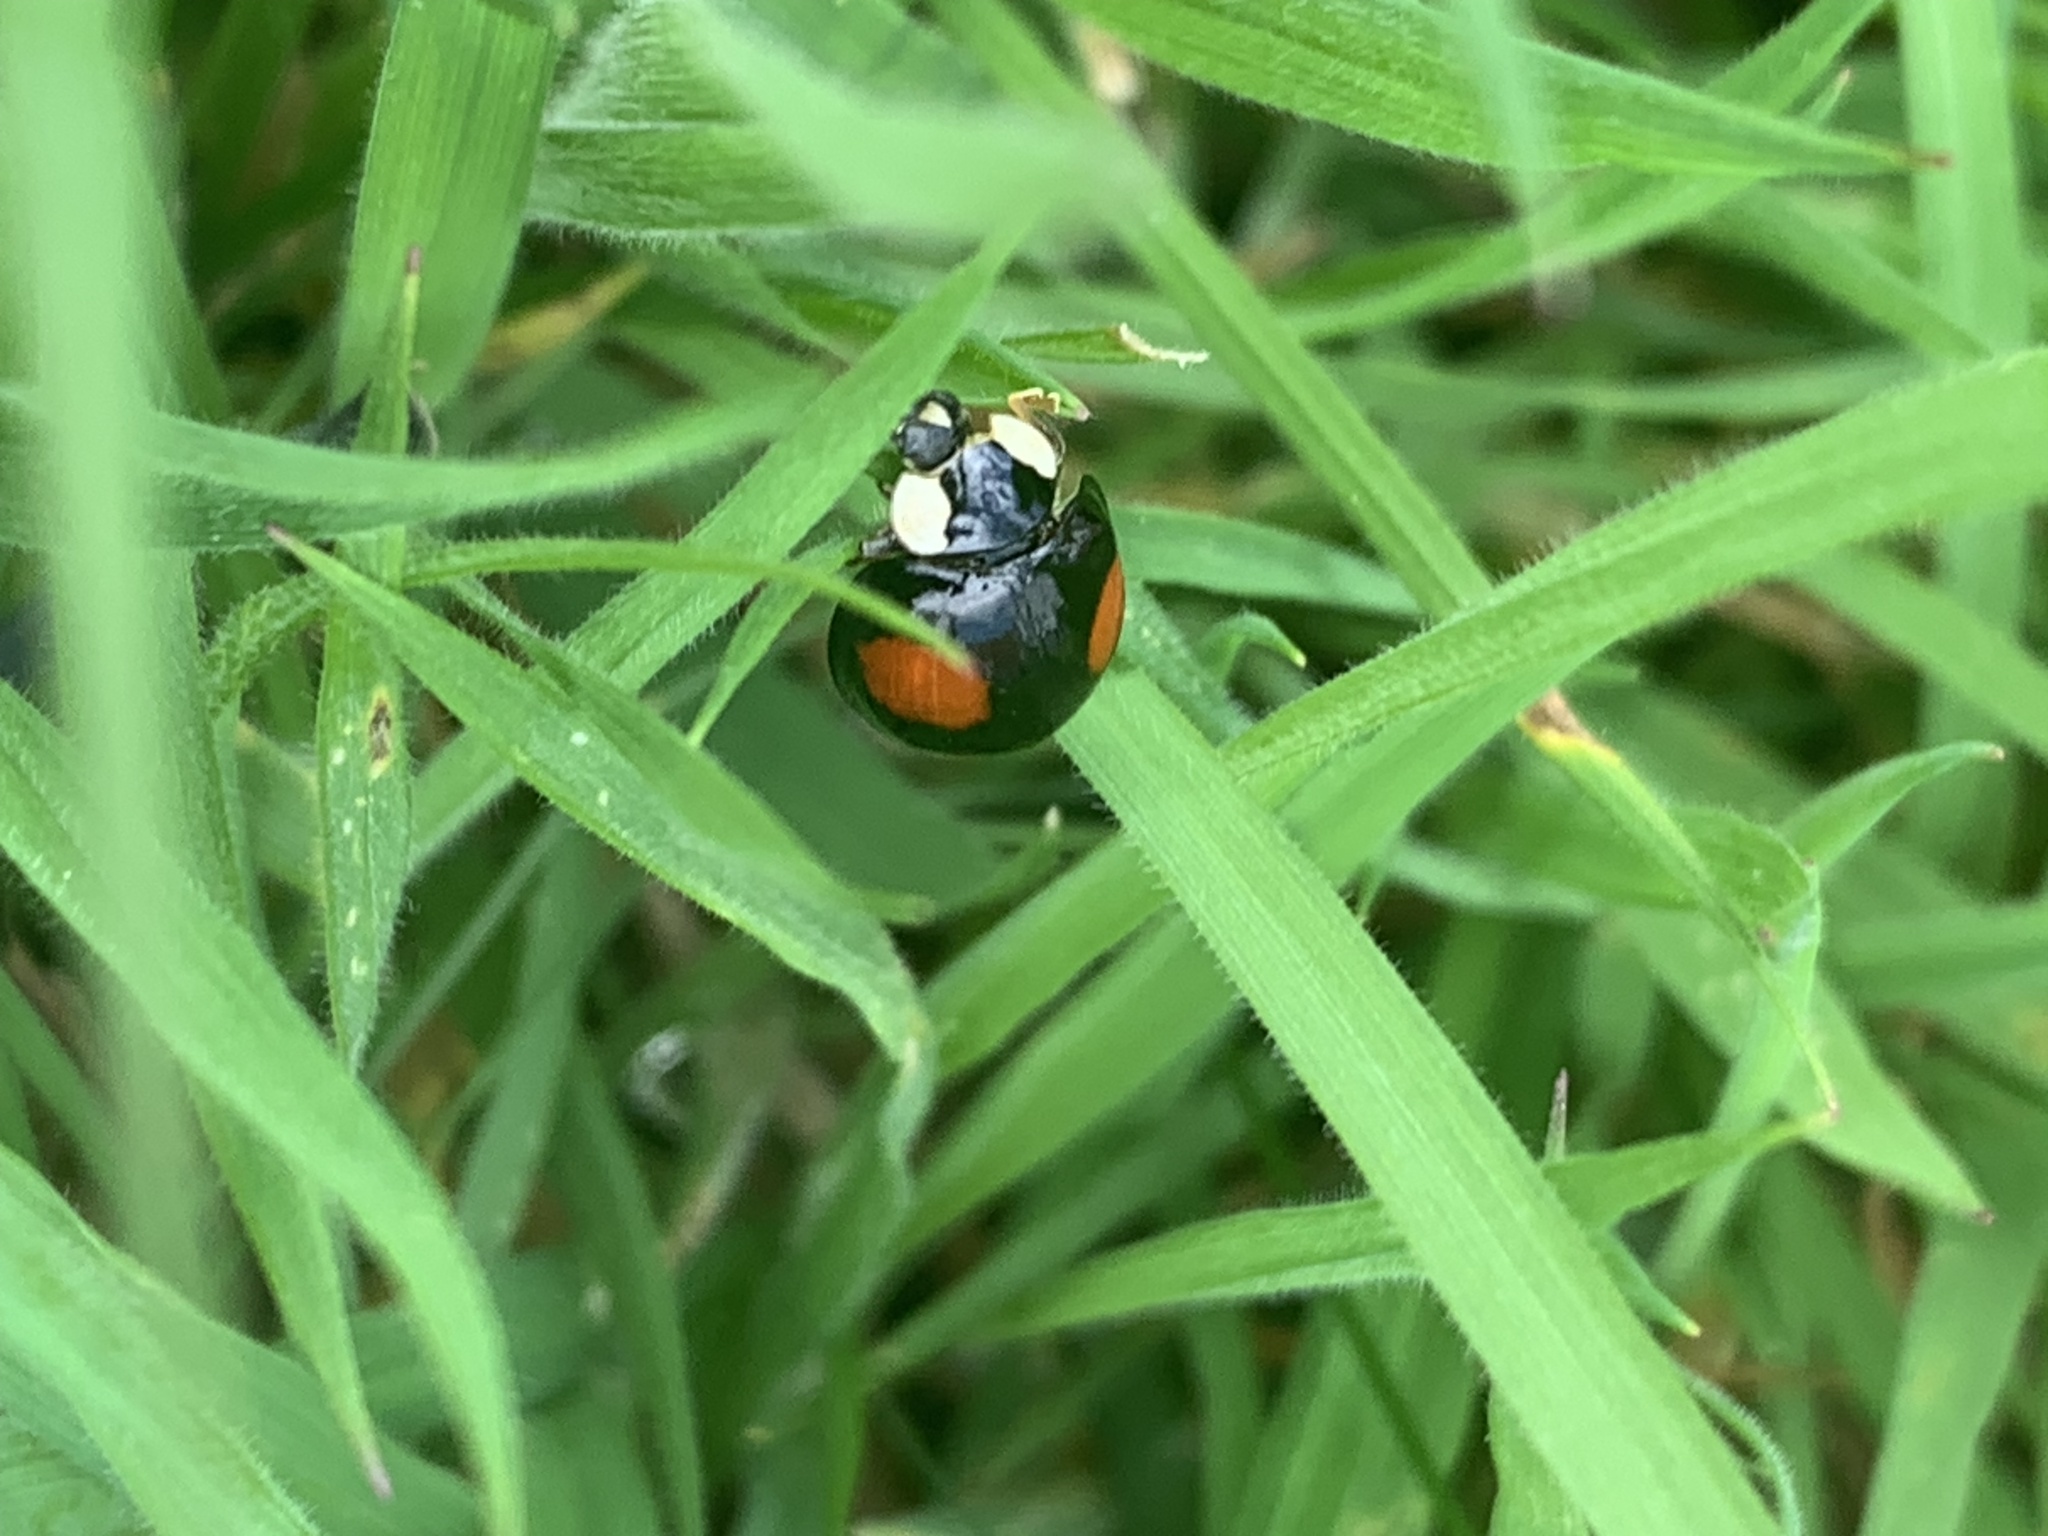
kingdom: Animalia
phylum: Arthropoda
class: Insecta
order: Coleoptera
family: Coccinellidae
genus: Harmonia
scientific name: Harmonia axyridis
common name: Harlequin ladybird
